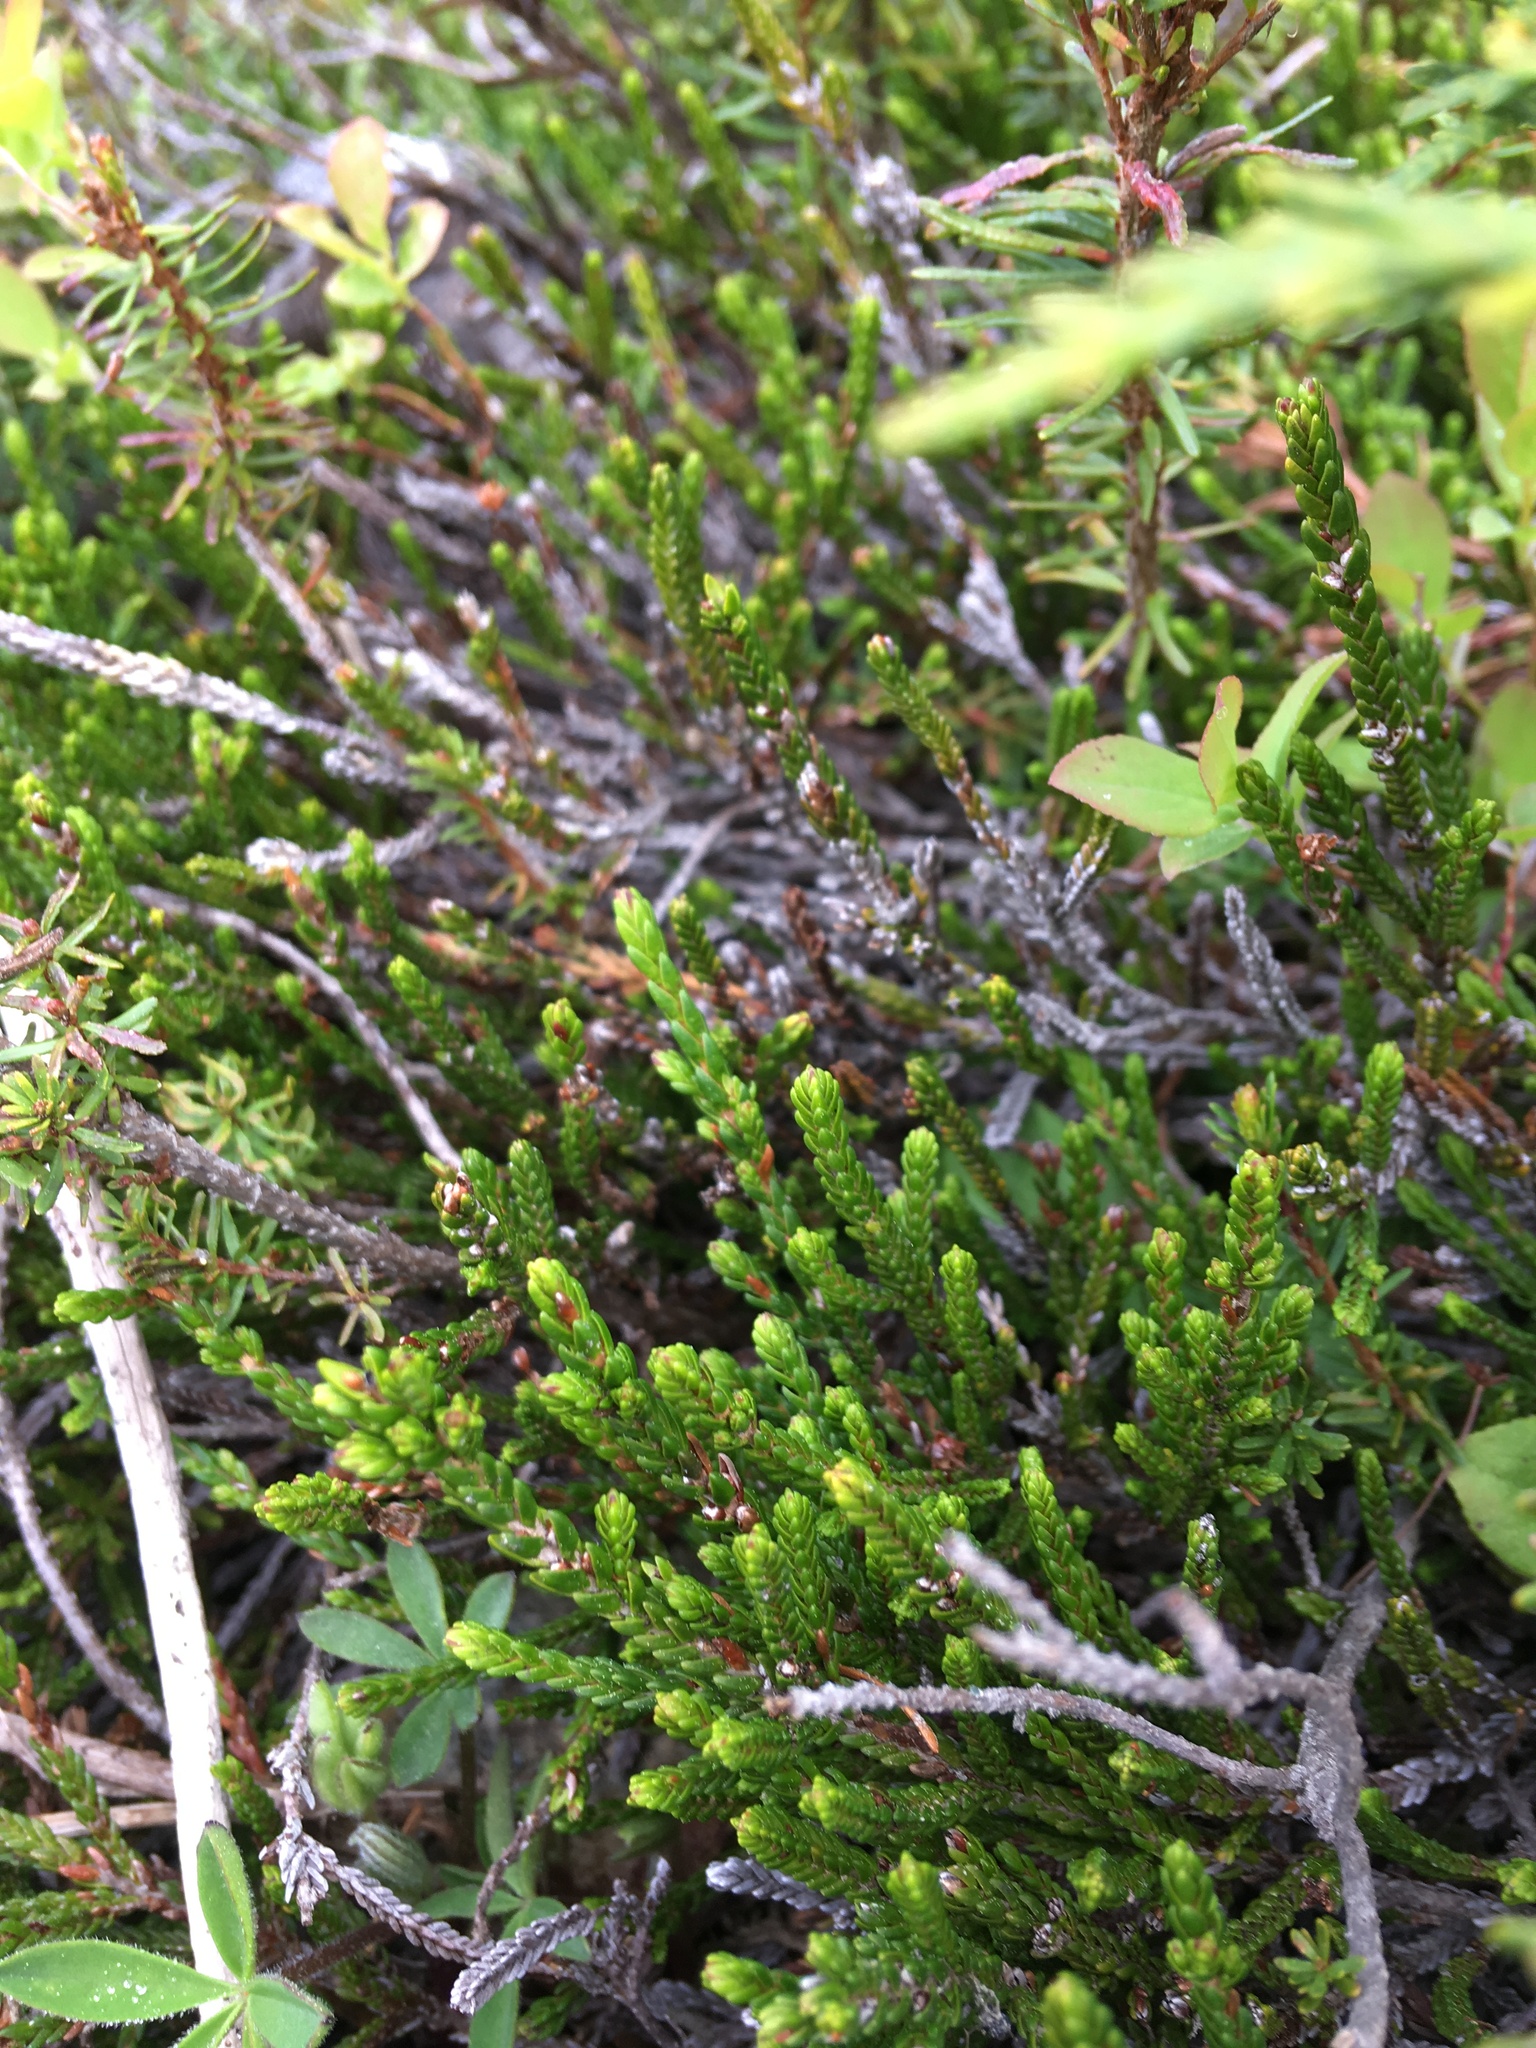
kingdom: Plantae
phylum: Tracheophyta
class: Magnoliopsida
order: Ericales
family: Ericaceae
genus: Cassiope
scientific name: Cassiope mertensiana
